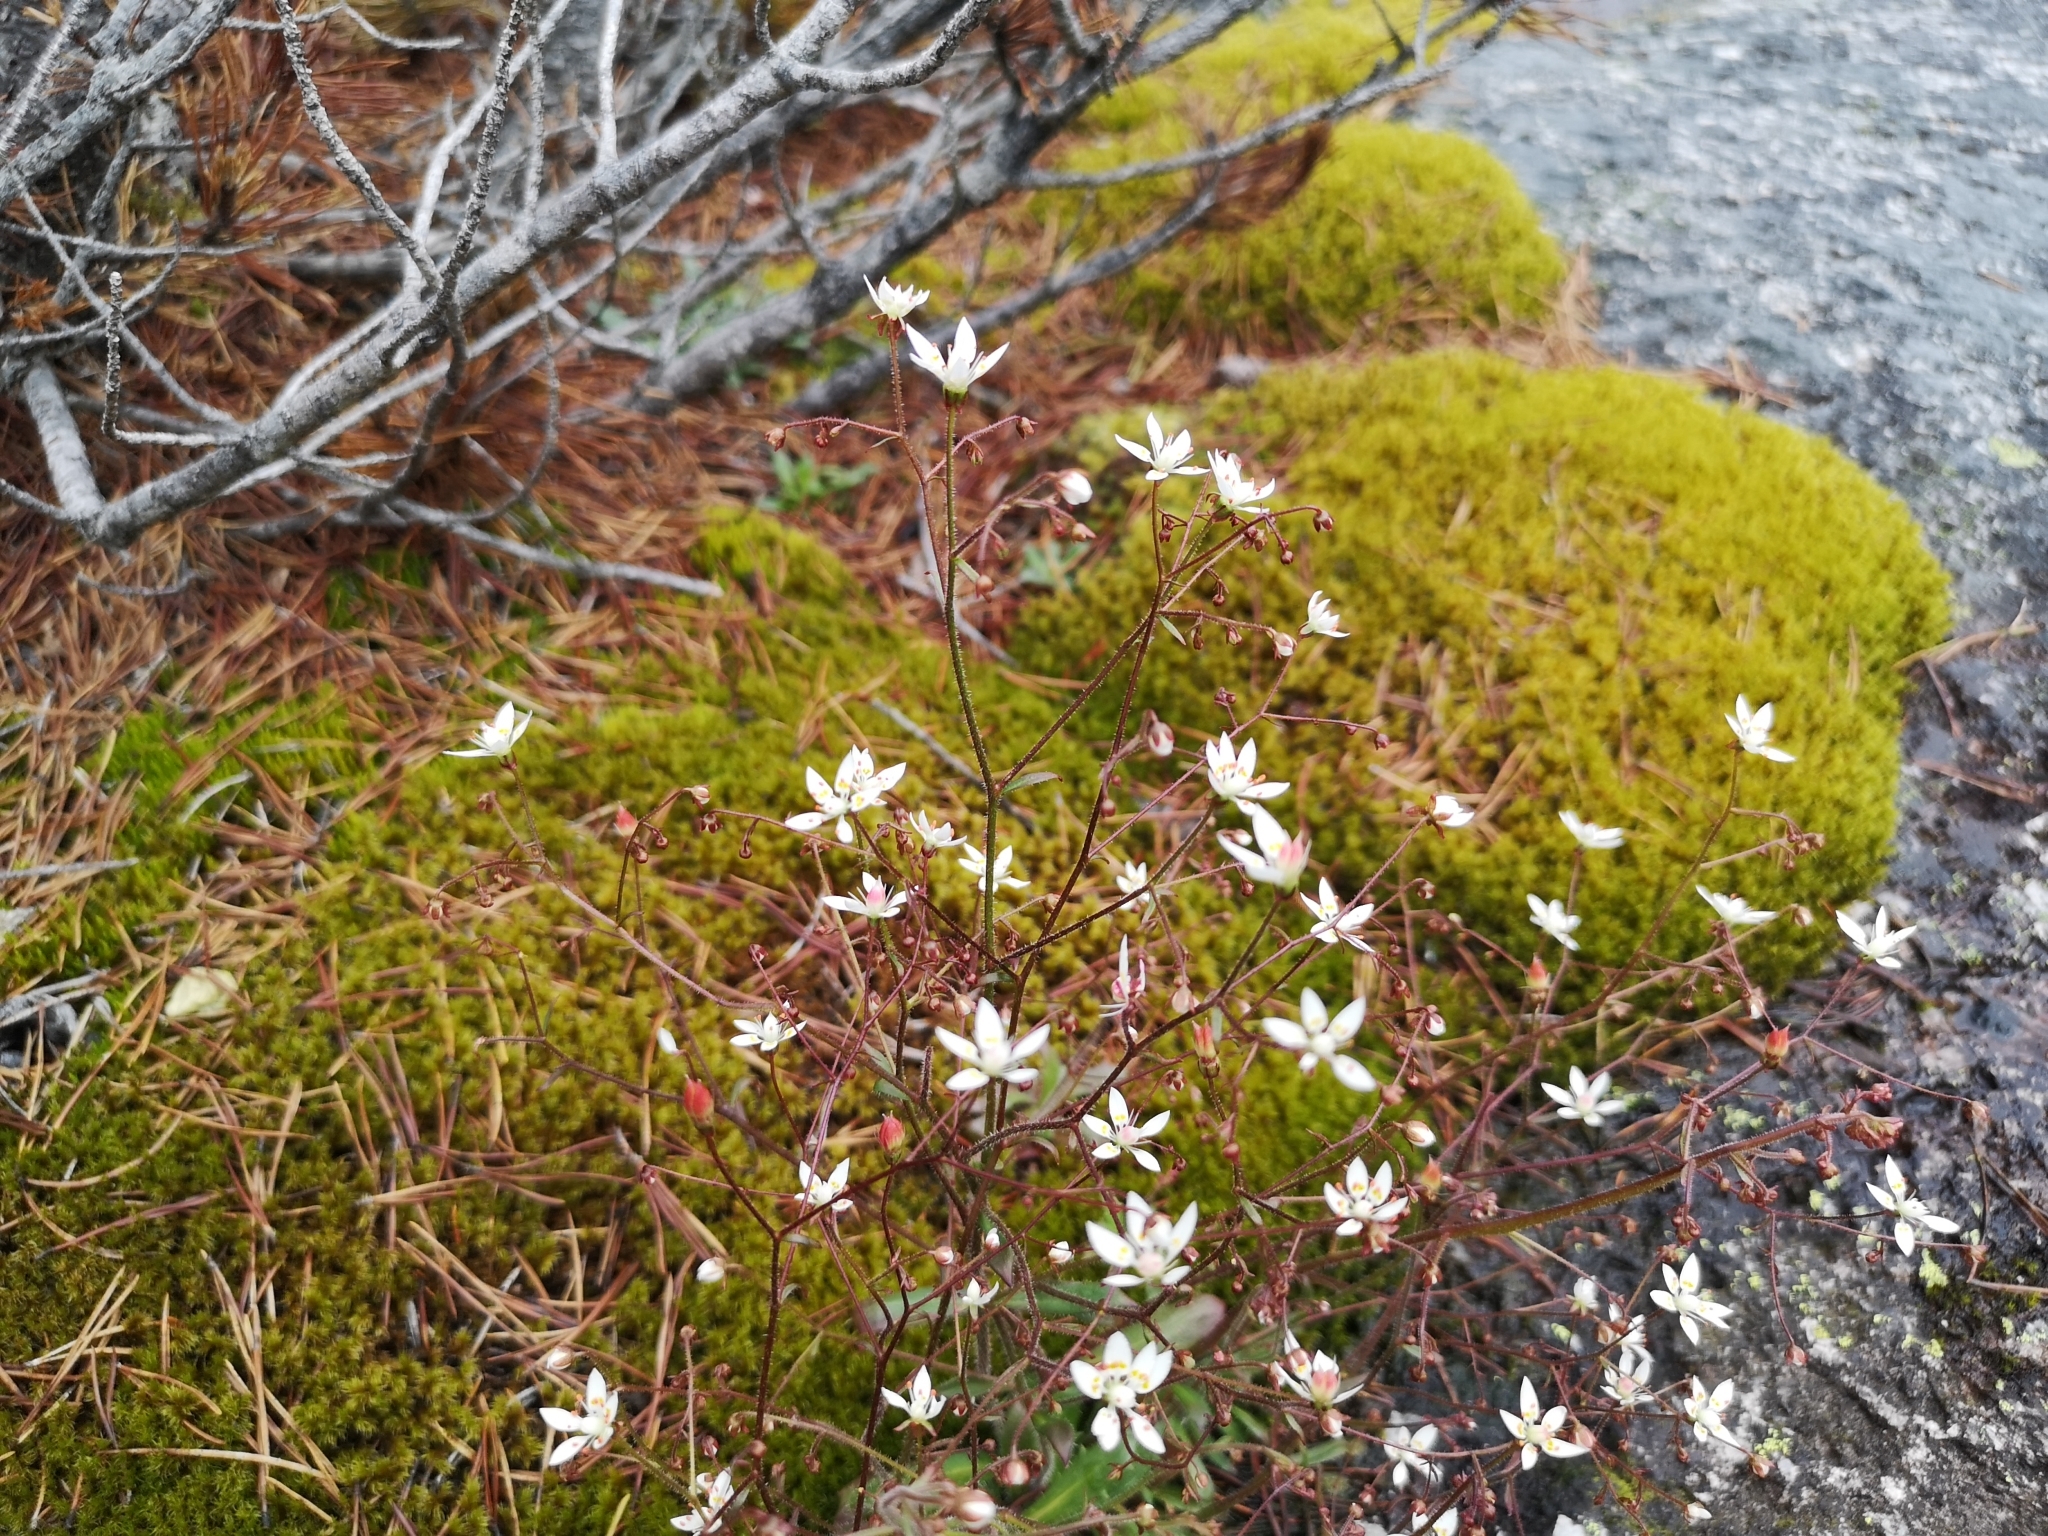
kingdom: Plantae
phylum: Tracheophyta
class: Magnoliopsida
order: Saxifragales
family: Saxifragaceae
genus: Micranthes
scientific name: Micranthes ferruginea
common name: Rusty saxifrage
